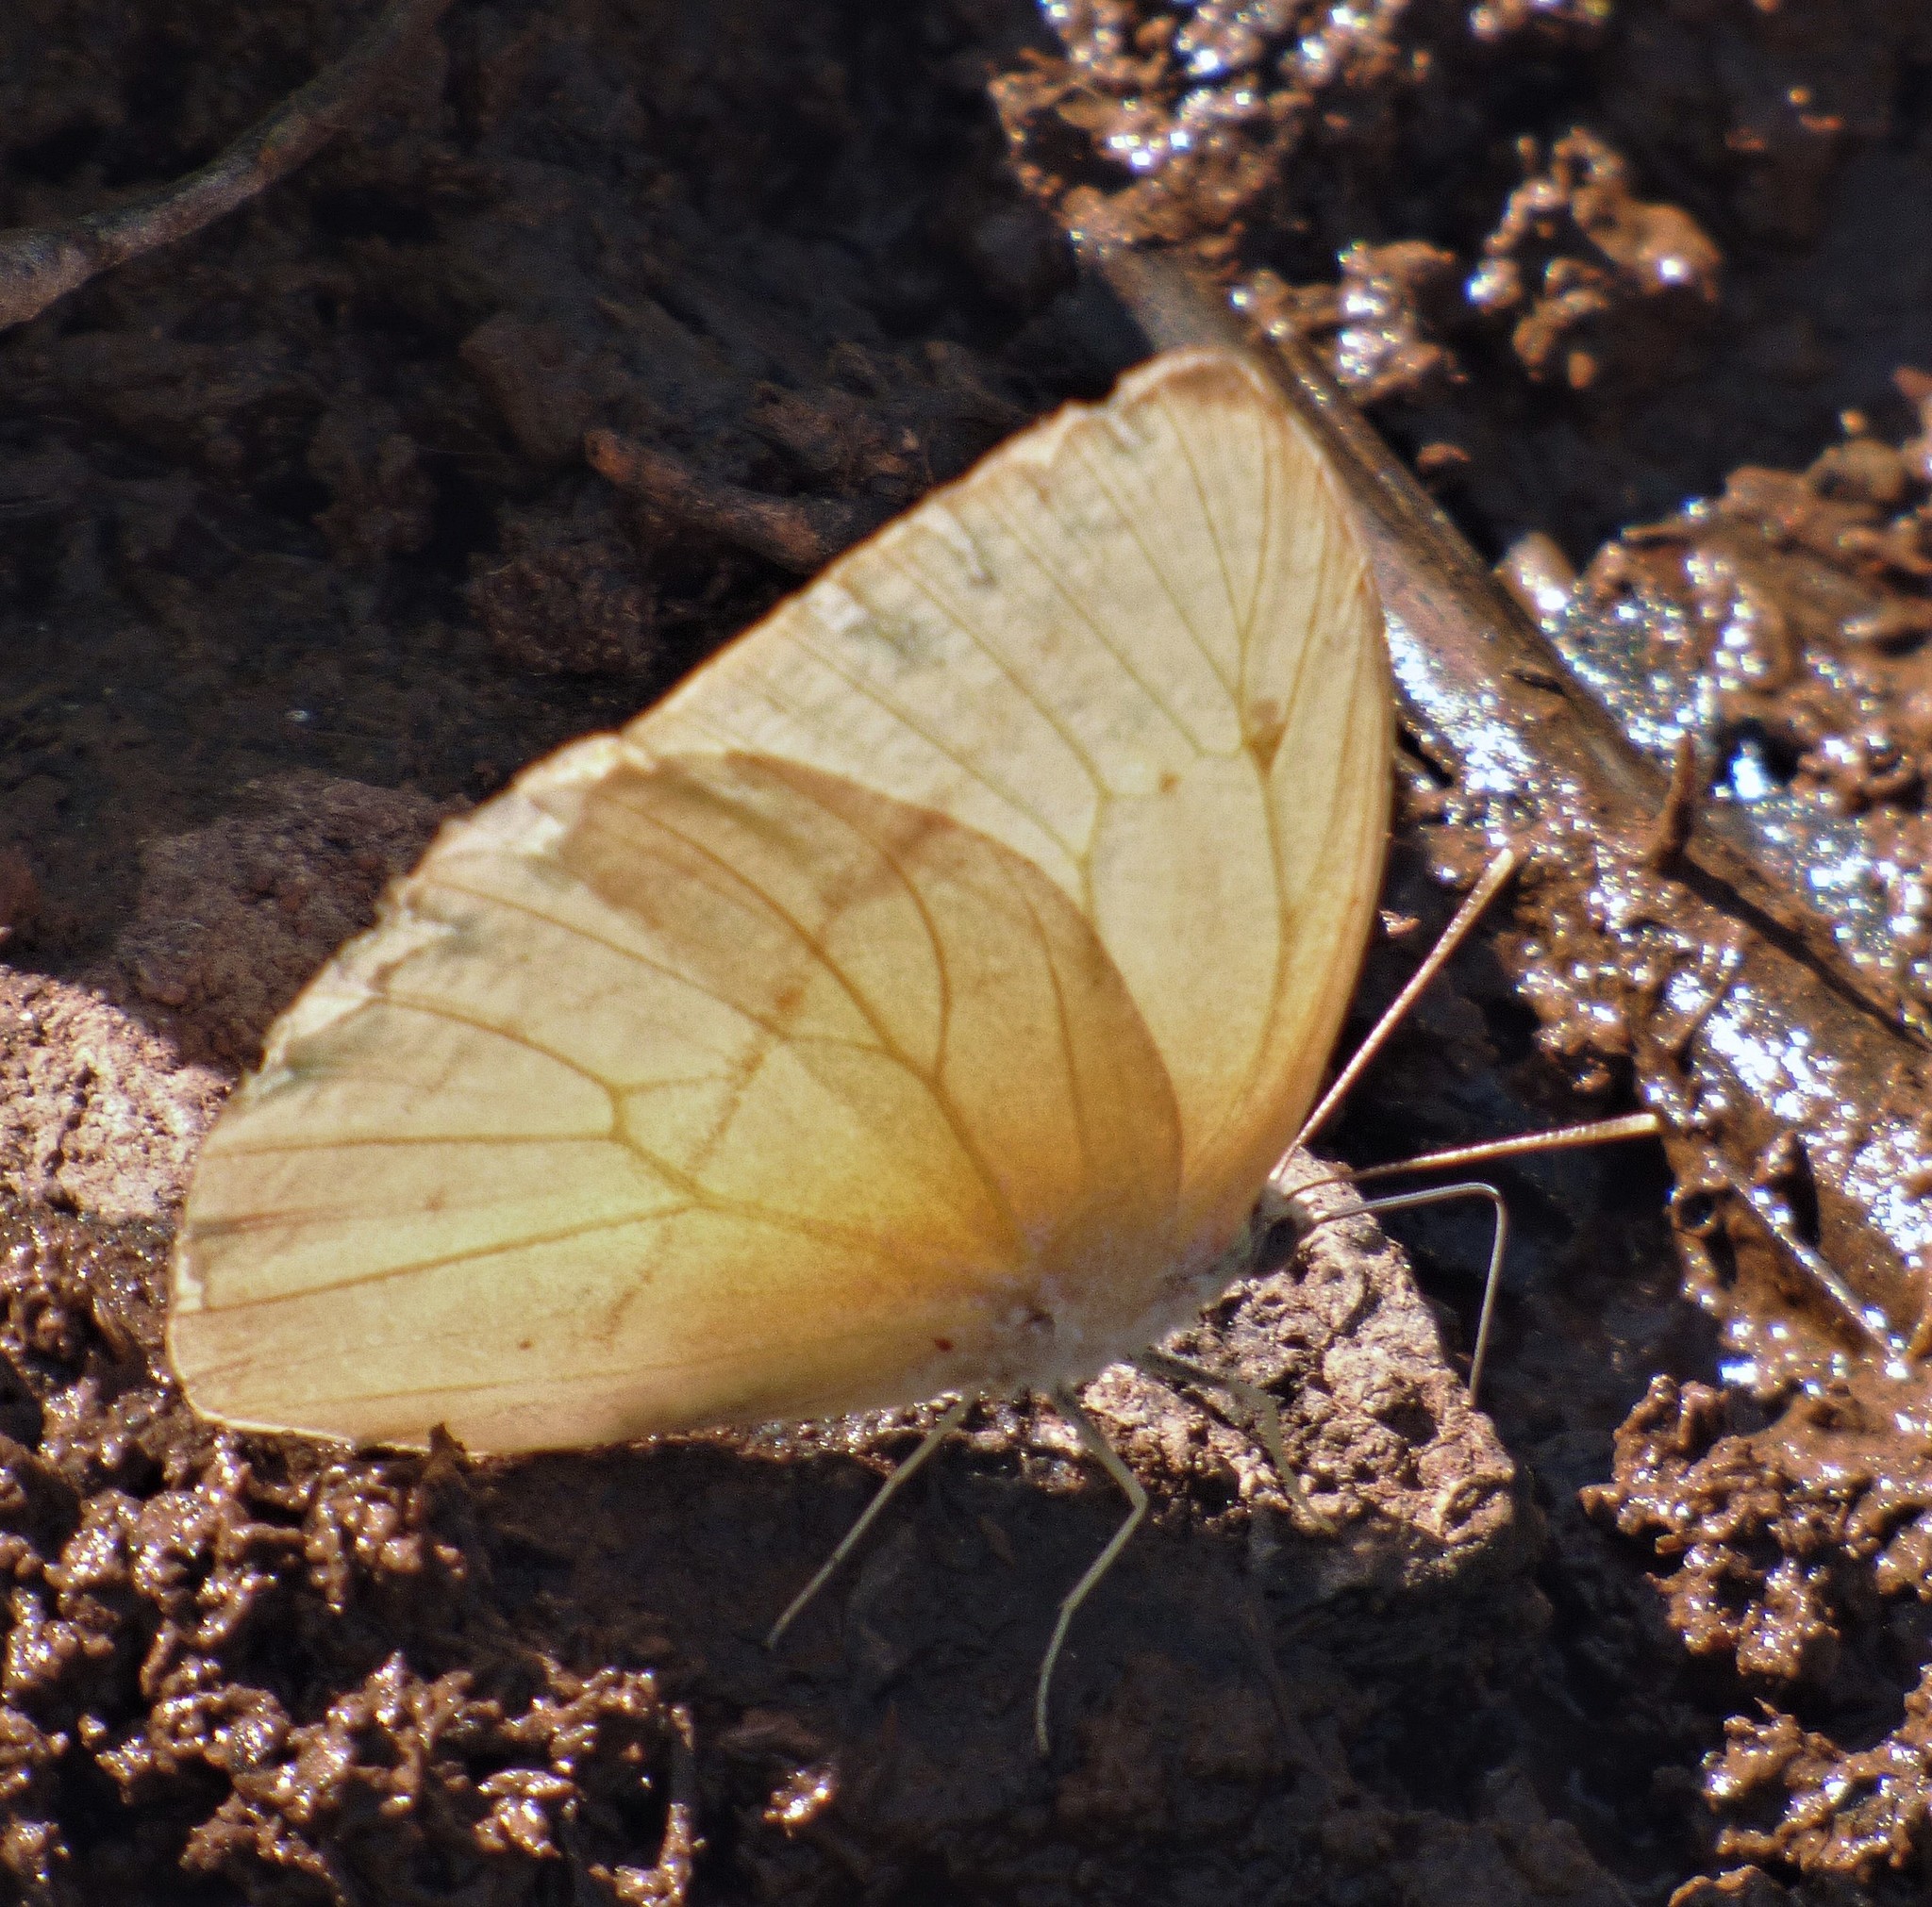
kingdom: Animalia
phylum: Arthropoda
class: Insecta
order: Lepidoptera
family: Pieridae
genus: Rhabdodryas
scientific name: Rhabdodryas trite
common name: Straight-lined sulphur
